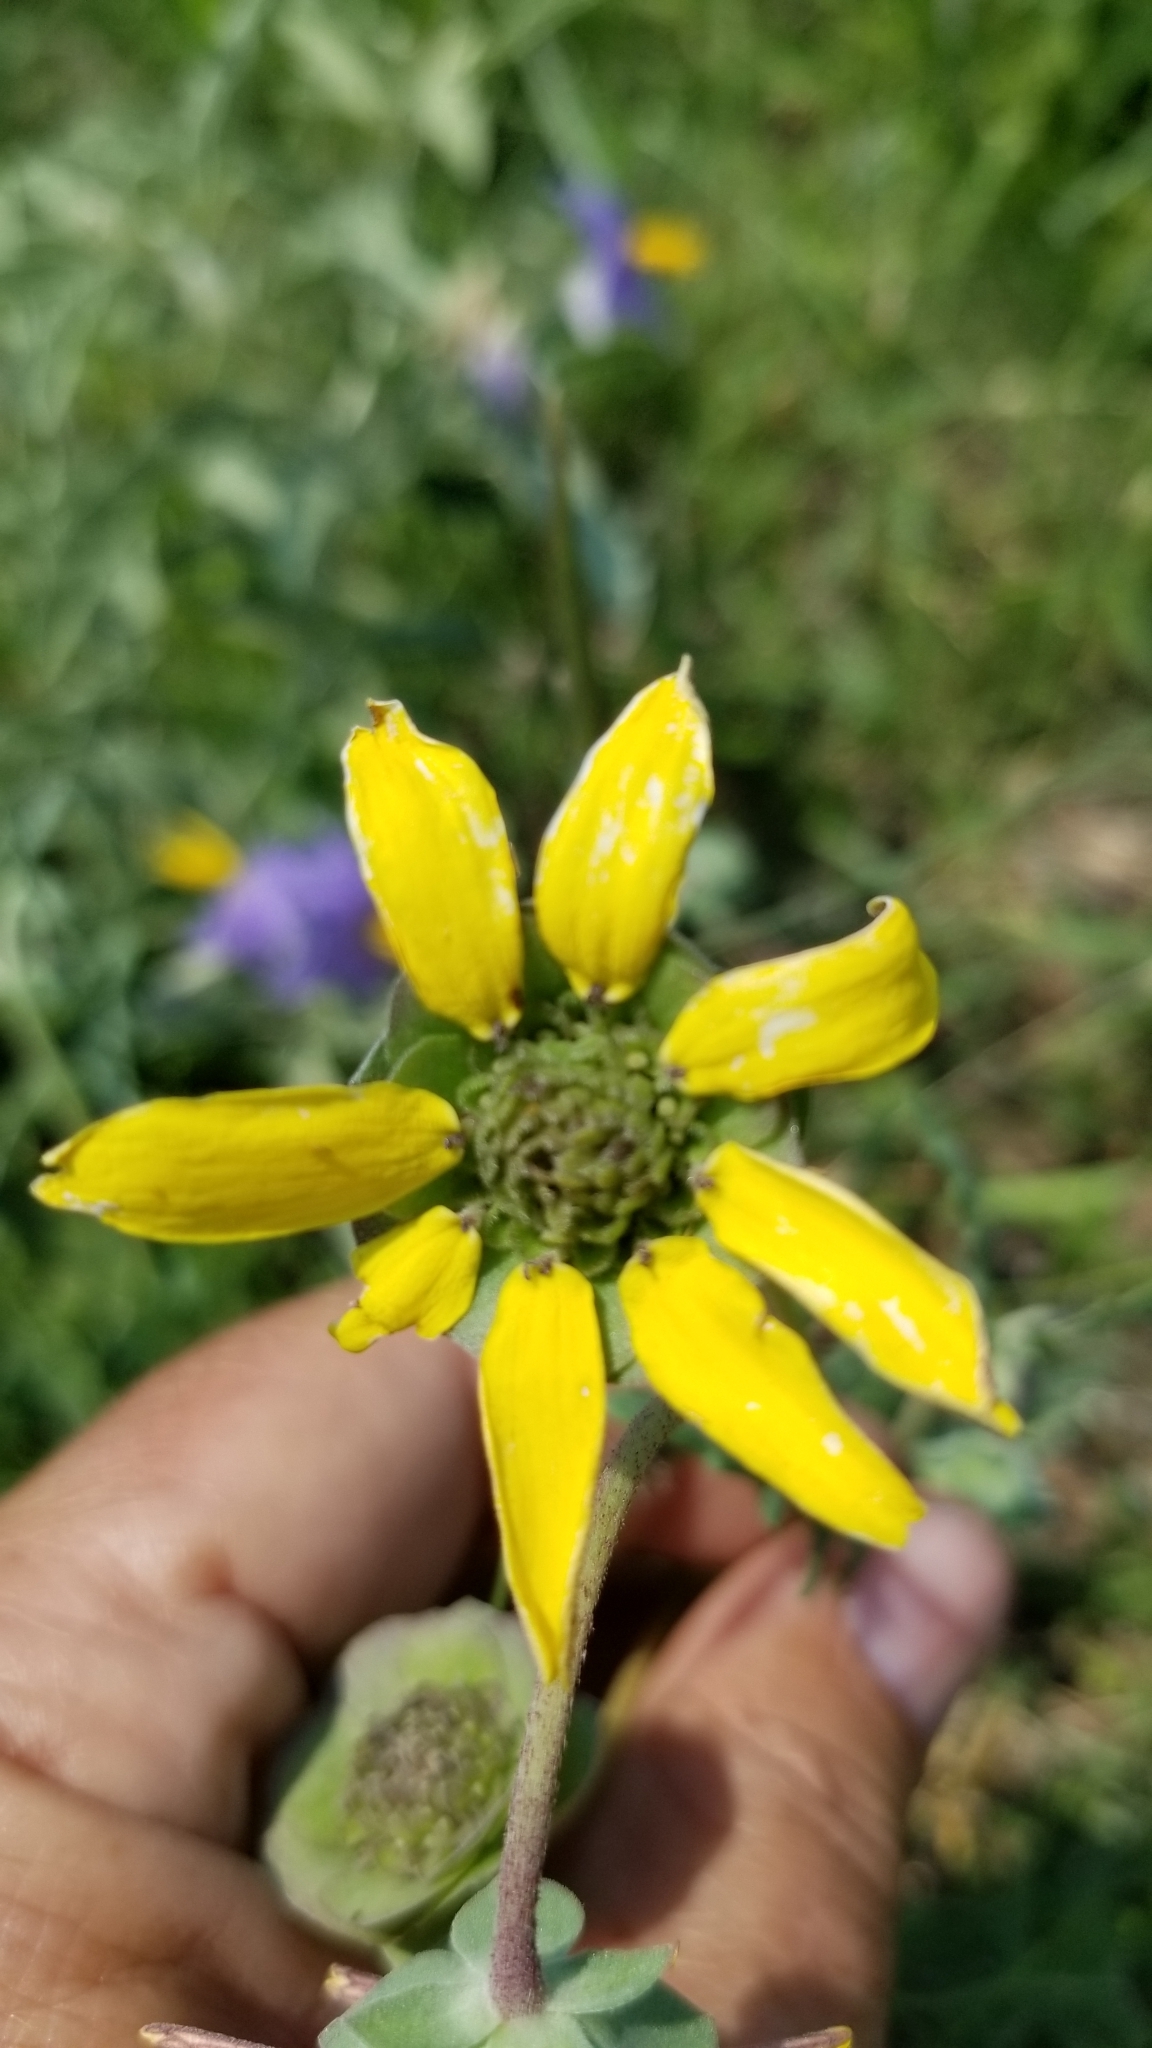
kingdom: Plantae
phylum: Tracheophyta
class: Magnoliopsida
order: Asterales
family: Asteraceae
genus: Berlandiera
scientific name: Berlandiera lyrata
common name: Chocolate-flower
